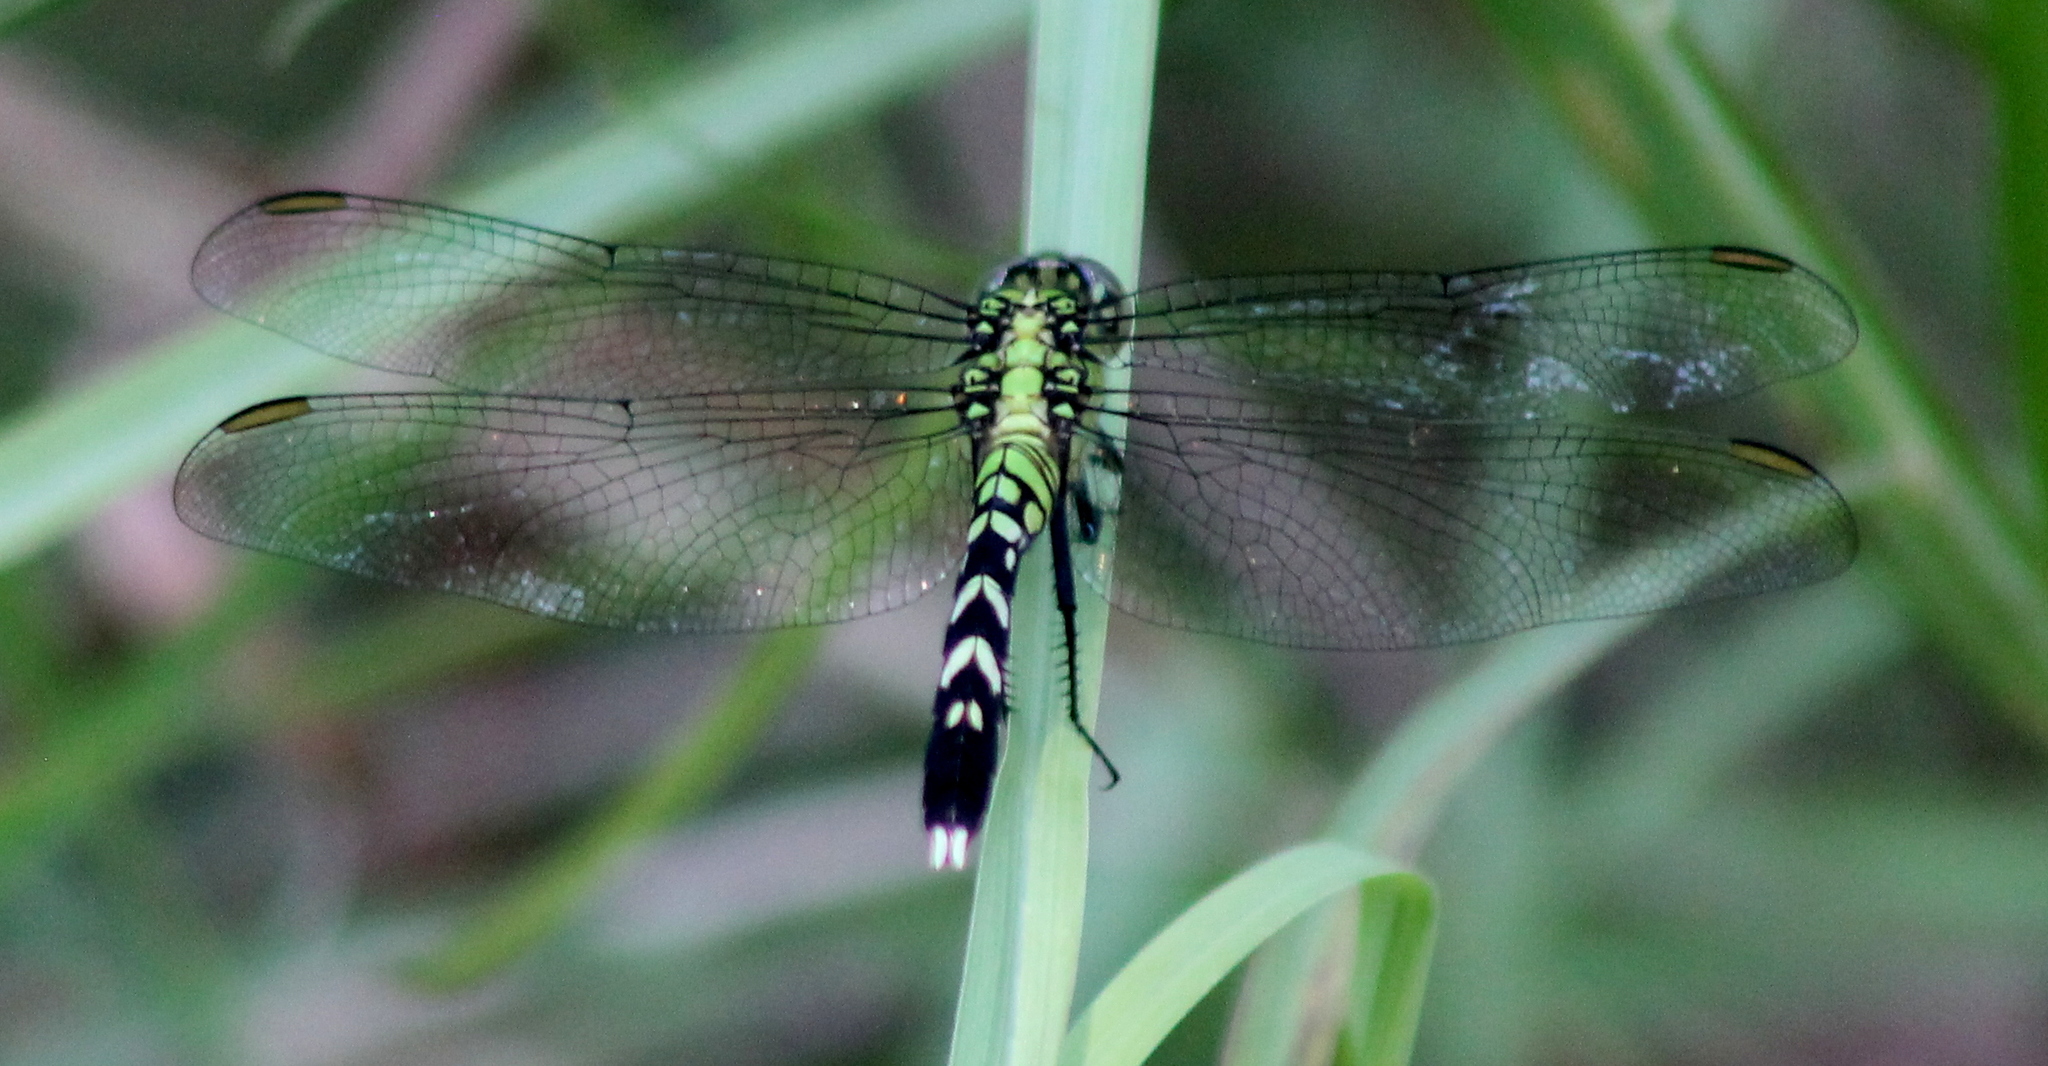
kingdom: Animalia
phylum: Arthropoda
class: Insecta
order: Odonata
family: Libellulidae
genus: Erythemis
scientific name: Erythemis simplicicollis
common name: Eastern pondhawk
